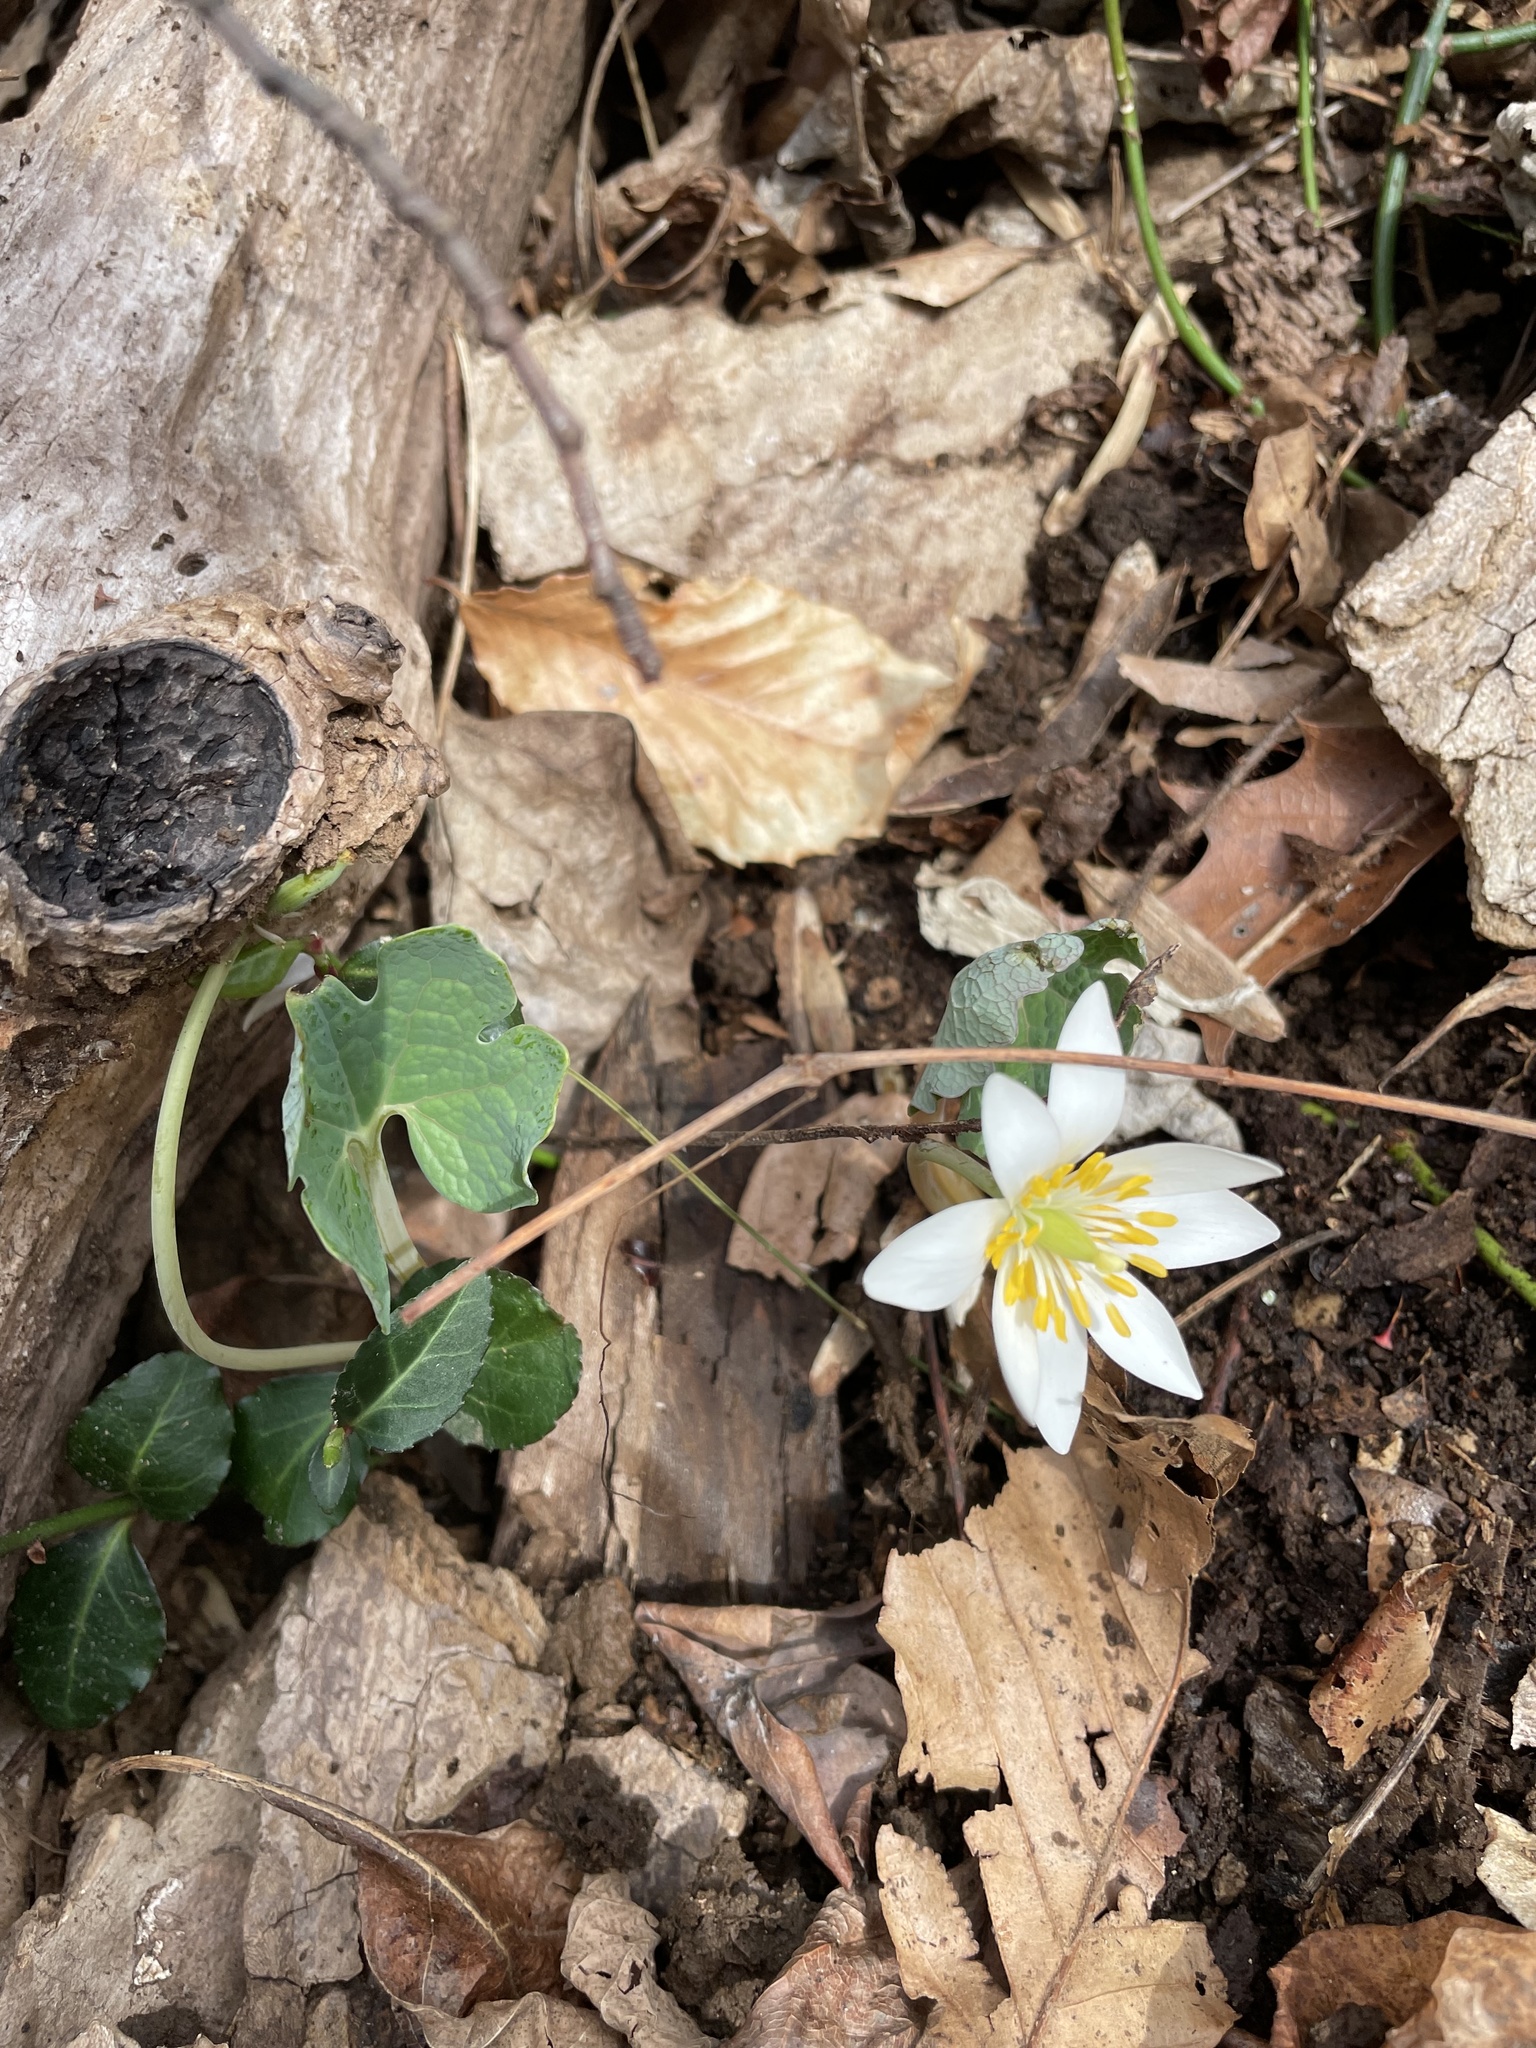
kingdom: Plantae
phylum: Tracheophyta
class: Magnoliopsida
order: Ranunculales
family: Papaveraceae
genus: Sanguinaria
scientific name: Sanguinaria canadensis
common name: Bloodroot
